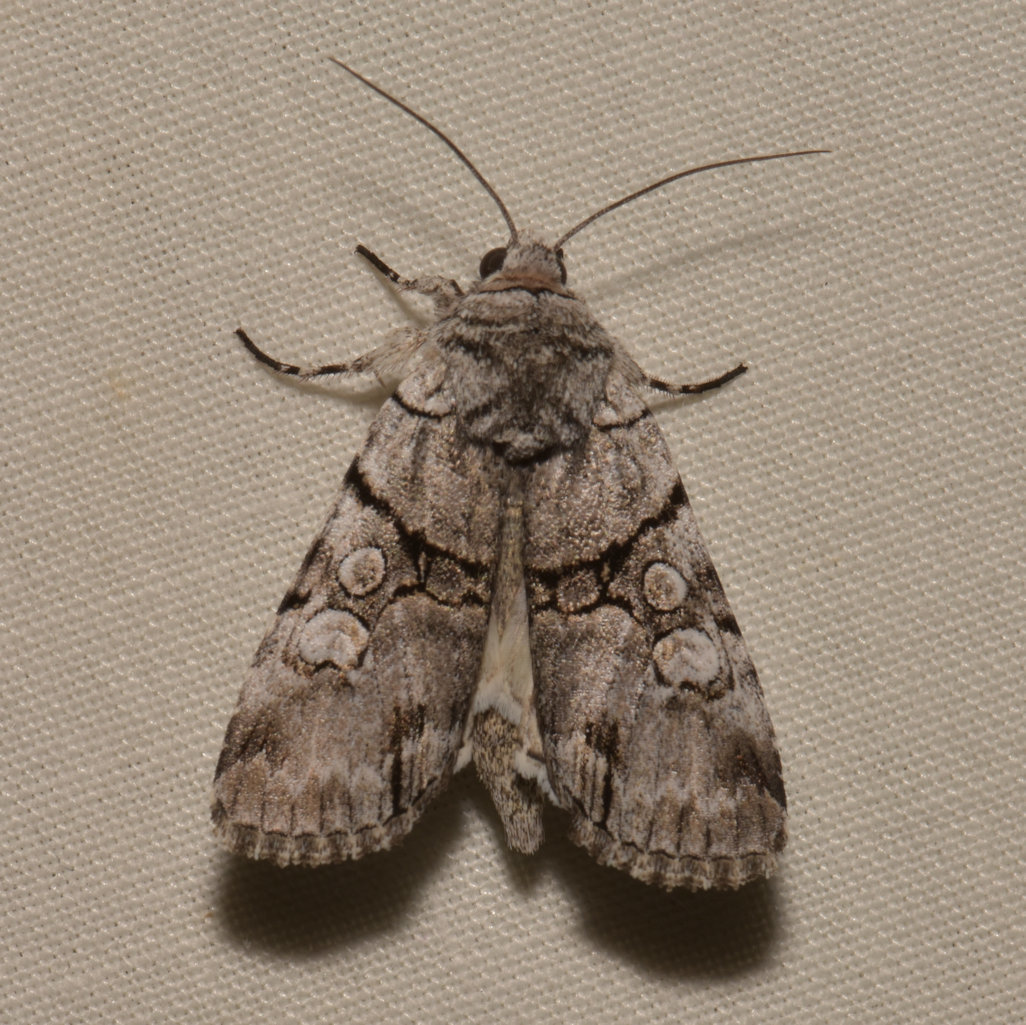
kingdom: Animalia
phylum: Arthropoda
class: Insecta
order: Lepidoptera
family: Noctuidae
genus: Sympistis
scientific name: Sympistis chionanthi
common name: Fringe-tree sallow
